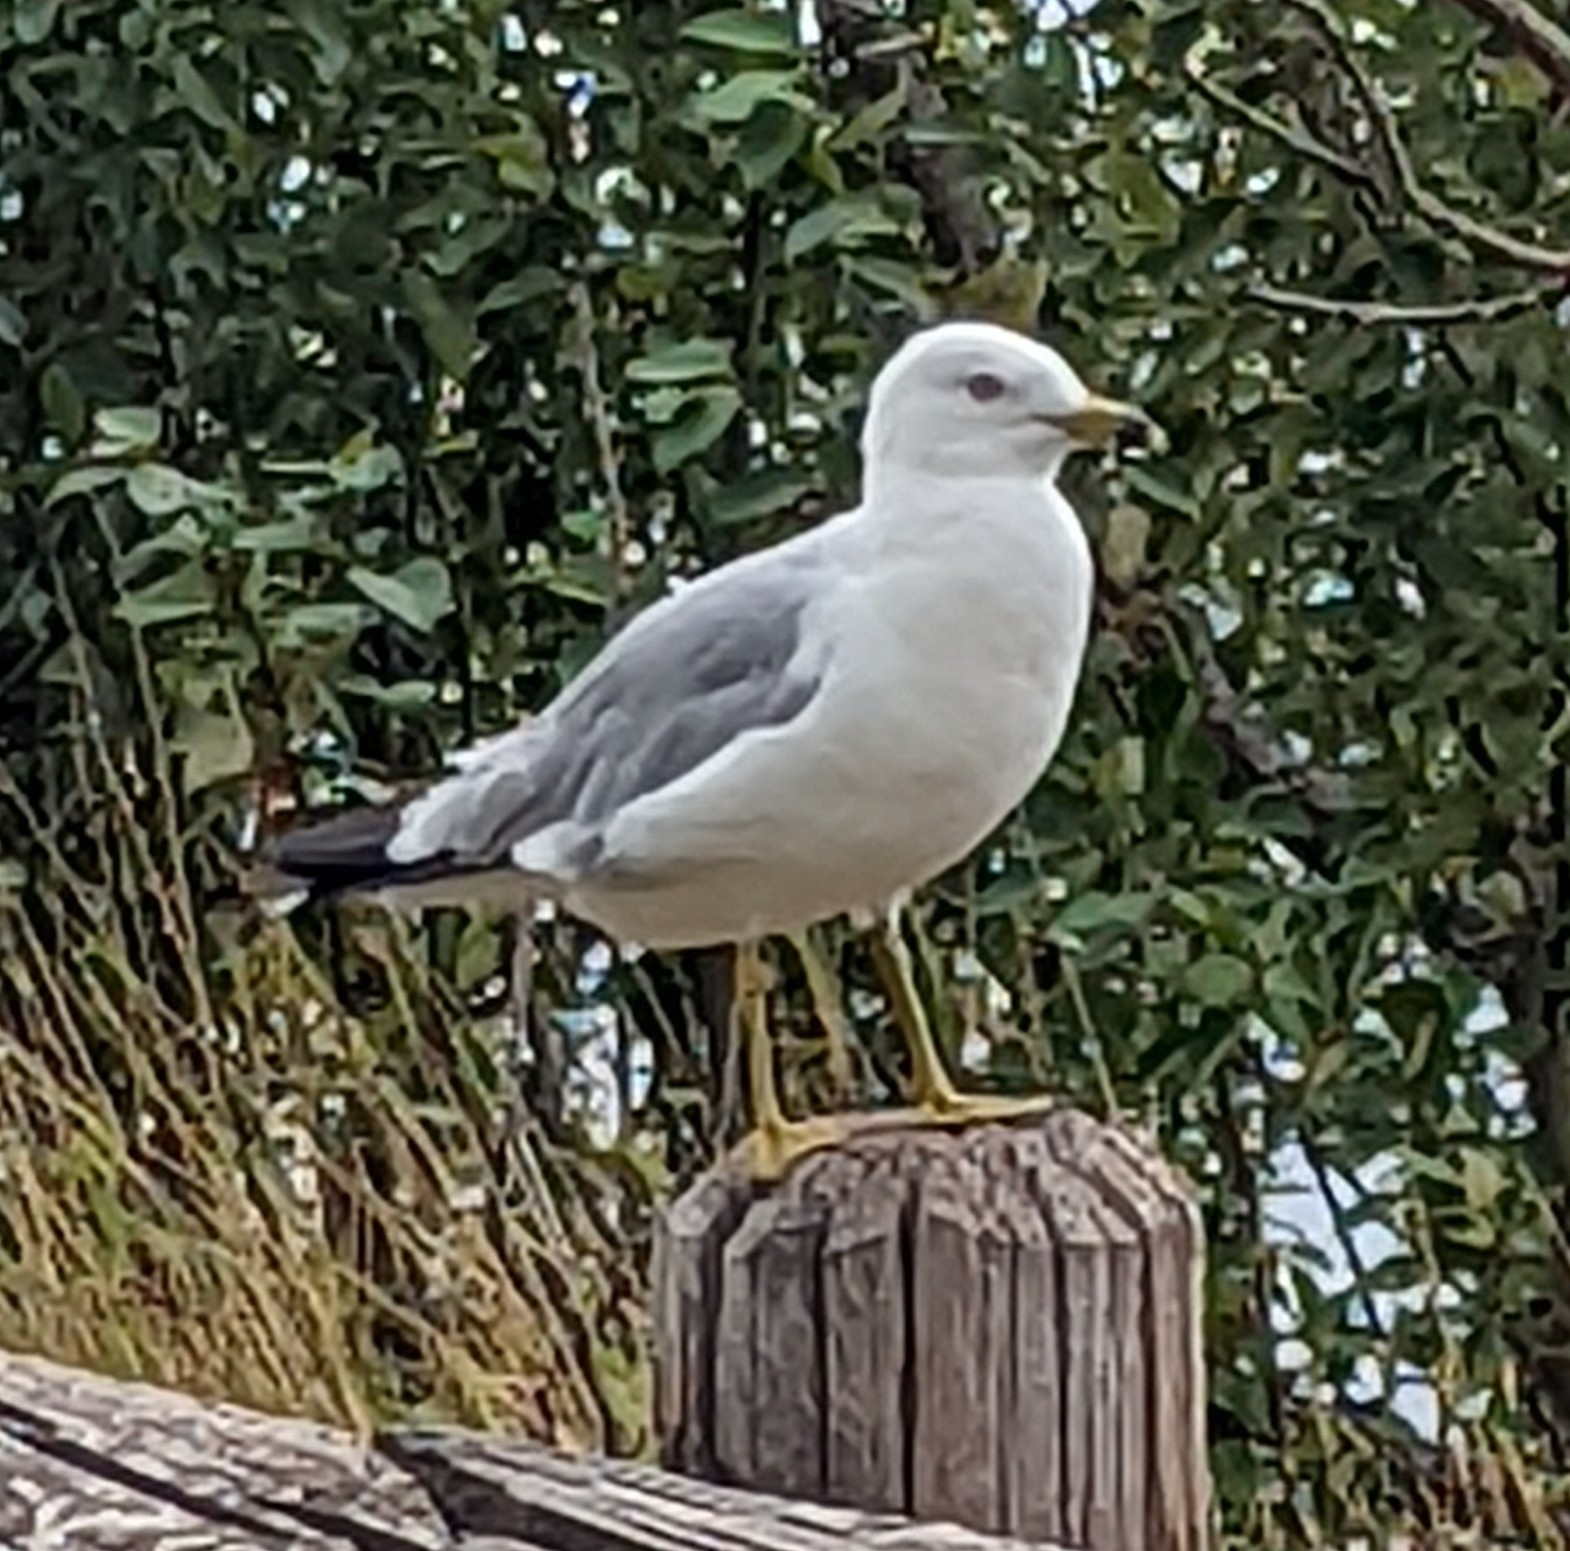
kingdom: Animalia
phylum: Chordata
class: Aves
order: Charadriiformes
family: Laridae
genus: Larus
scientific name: Larus delawarensis
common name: Ring-billed gull
